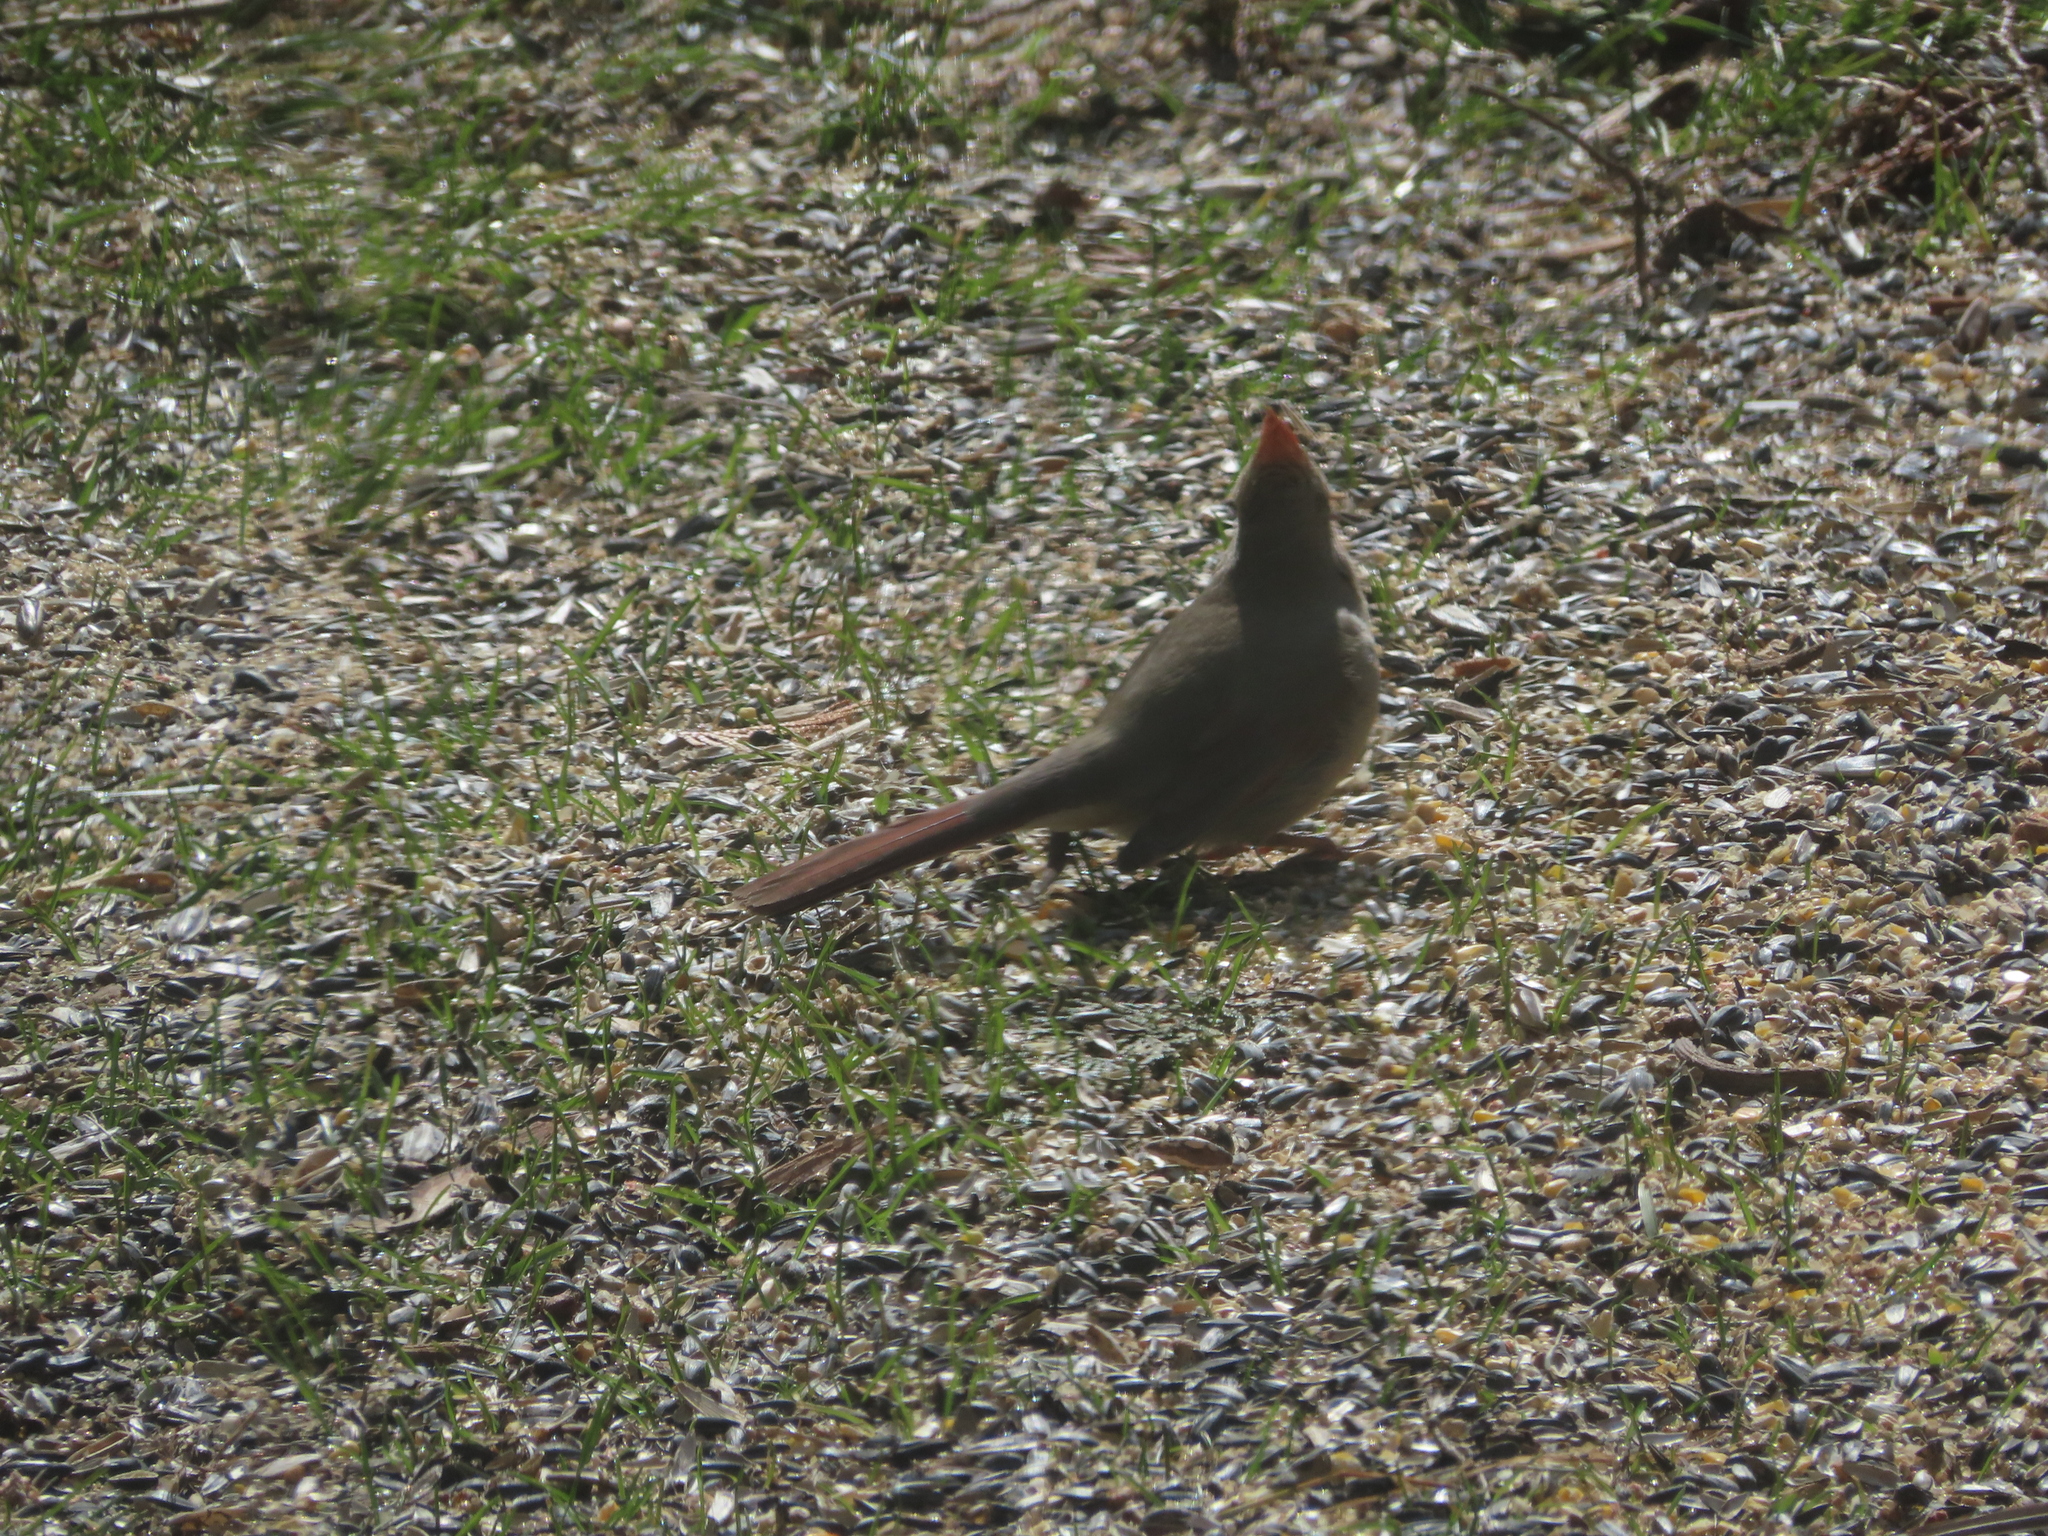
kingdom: Animalia
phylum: Chordata
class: Aves
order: Passeriformes
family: Cardinalidae
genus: Cardinalis
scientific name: Cardinalis cardinalis
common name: Northern cardinal
